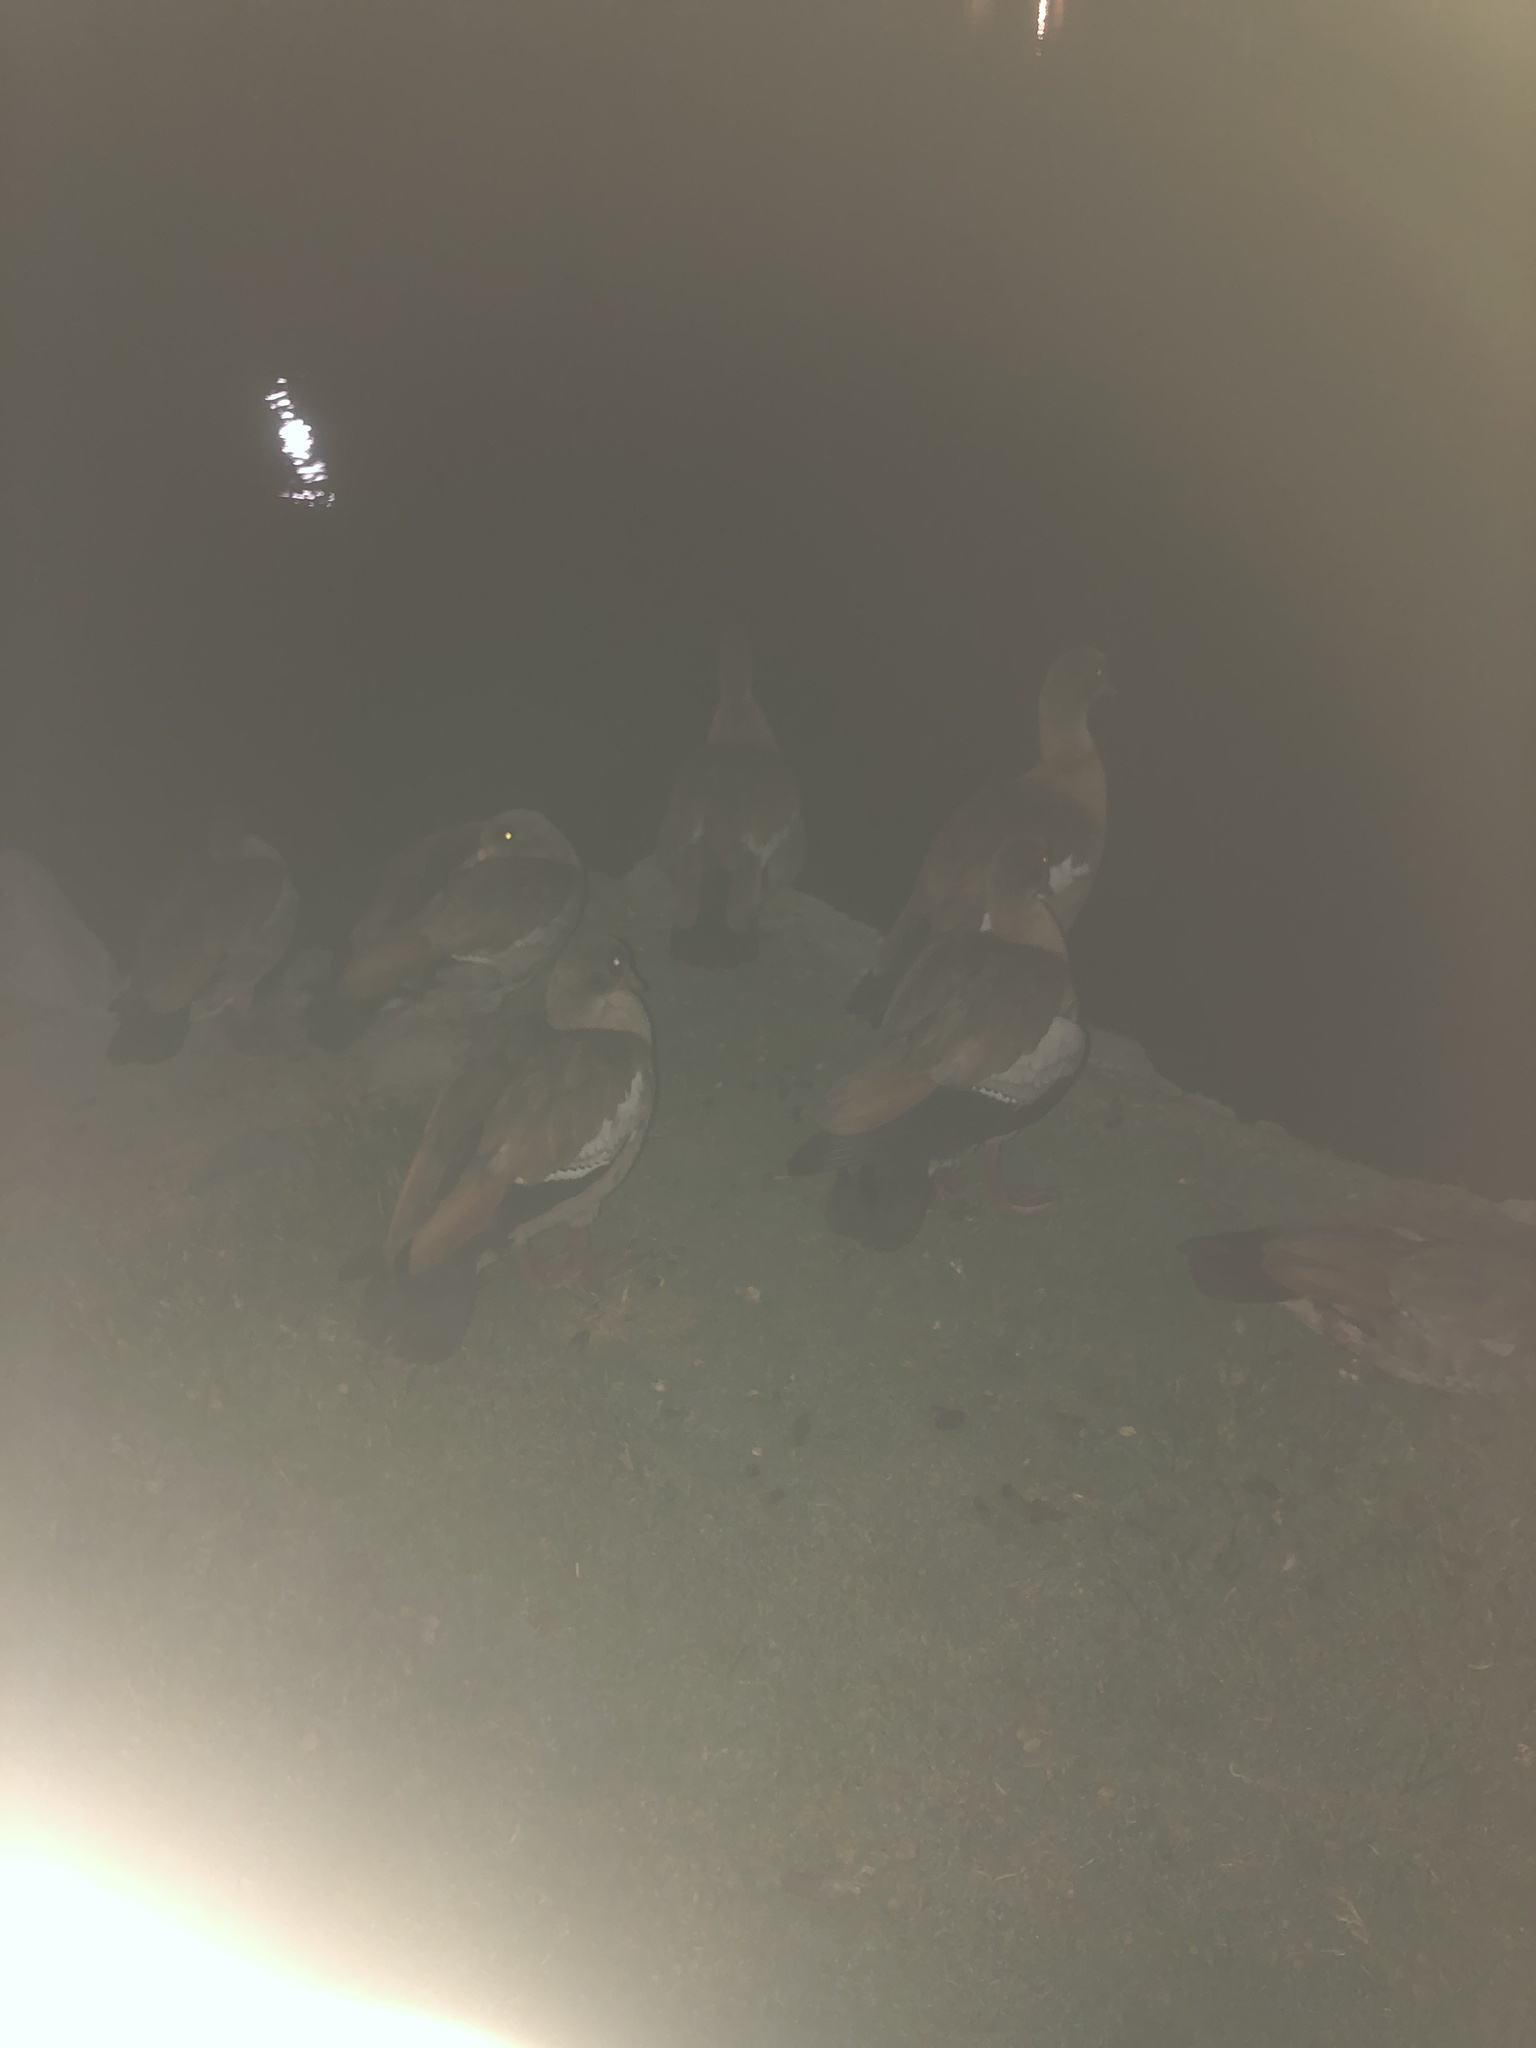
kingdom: Animalia
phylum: Chordata
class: Aves
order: Anseriformes
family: Anatidae
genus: Alopochen
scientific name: Alopochen aegyptiaca
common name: Egyptian goose
